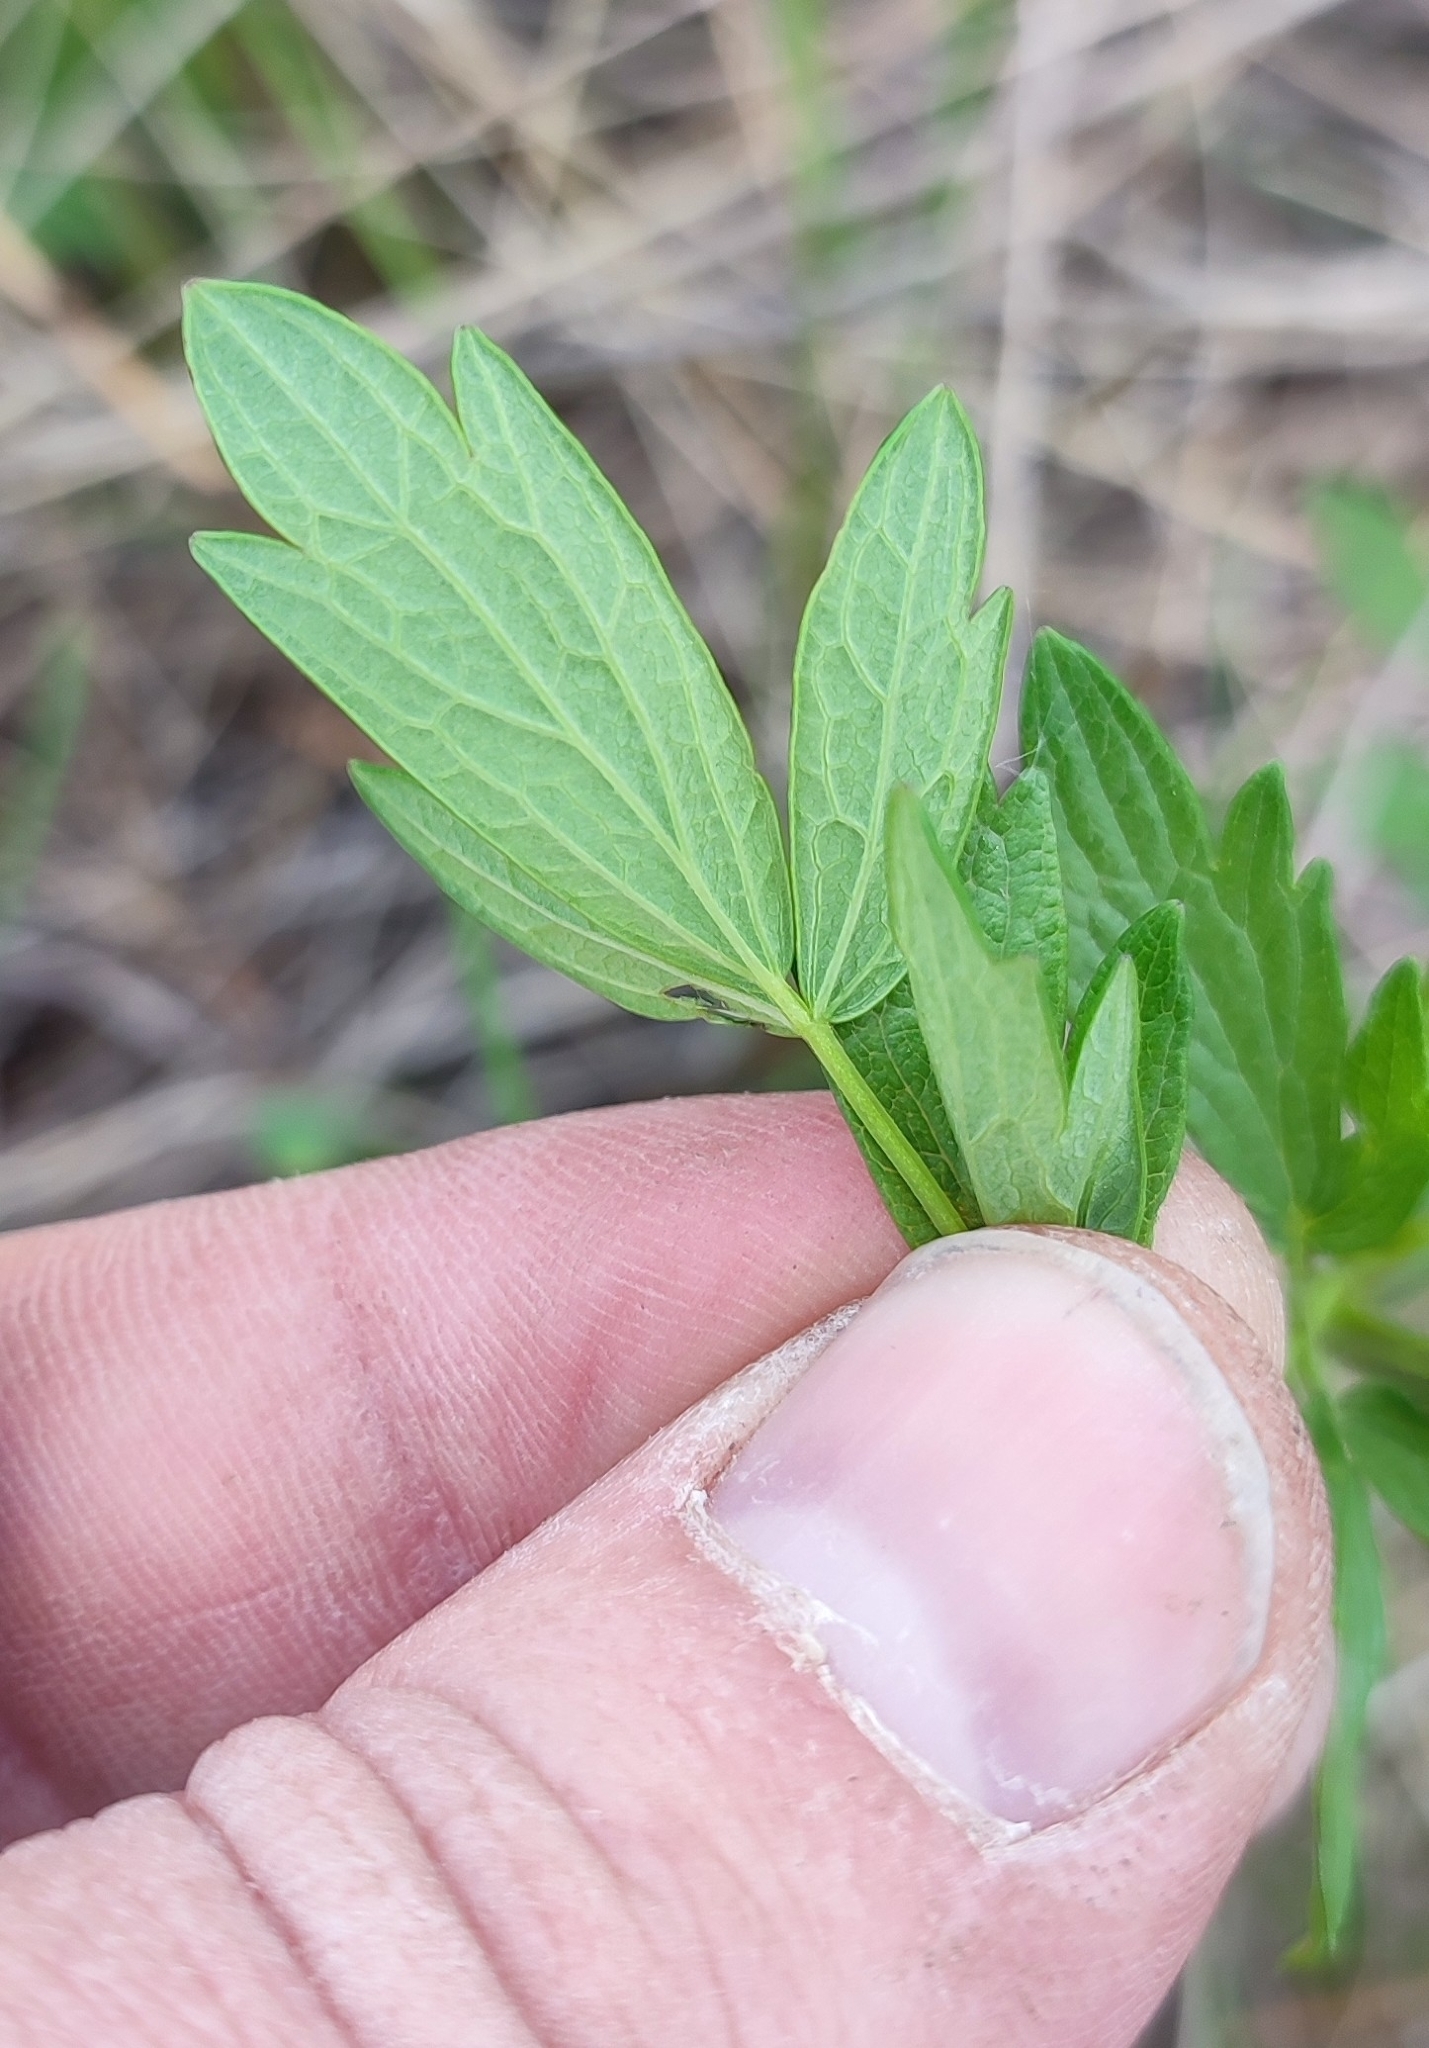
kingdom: Plantae
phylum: Tracheophyta
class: Magnoliopsida
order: Ranunculales
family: Ranunculaceae
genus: Thalictrum
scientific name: Thalictrum simplex
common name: Small meadow-rue
